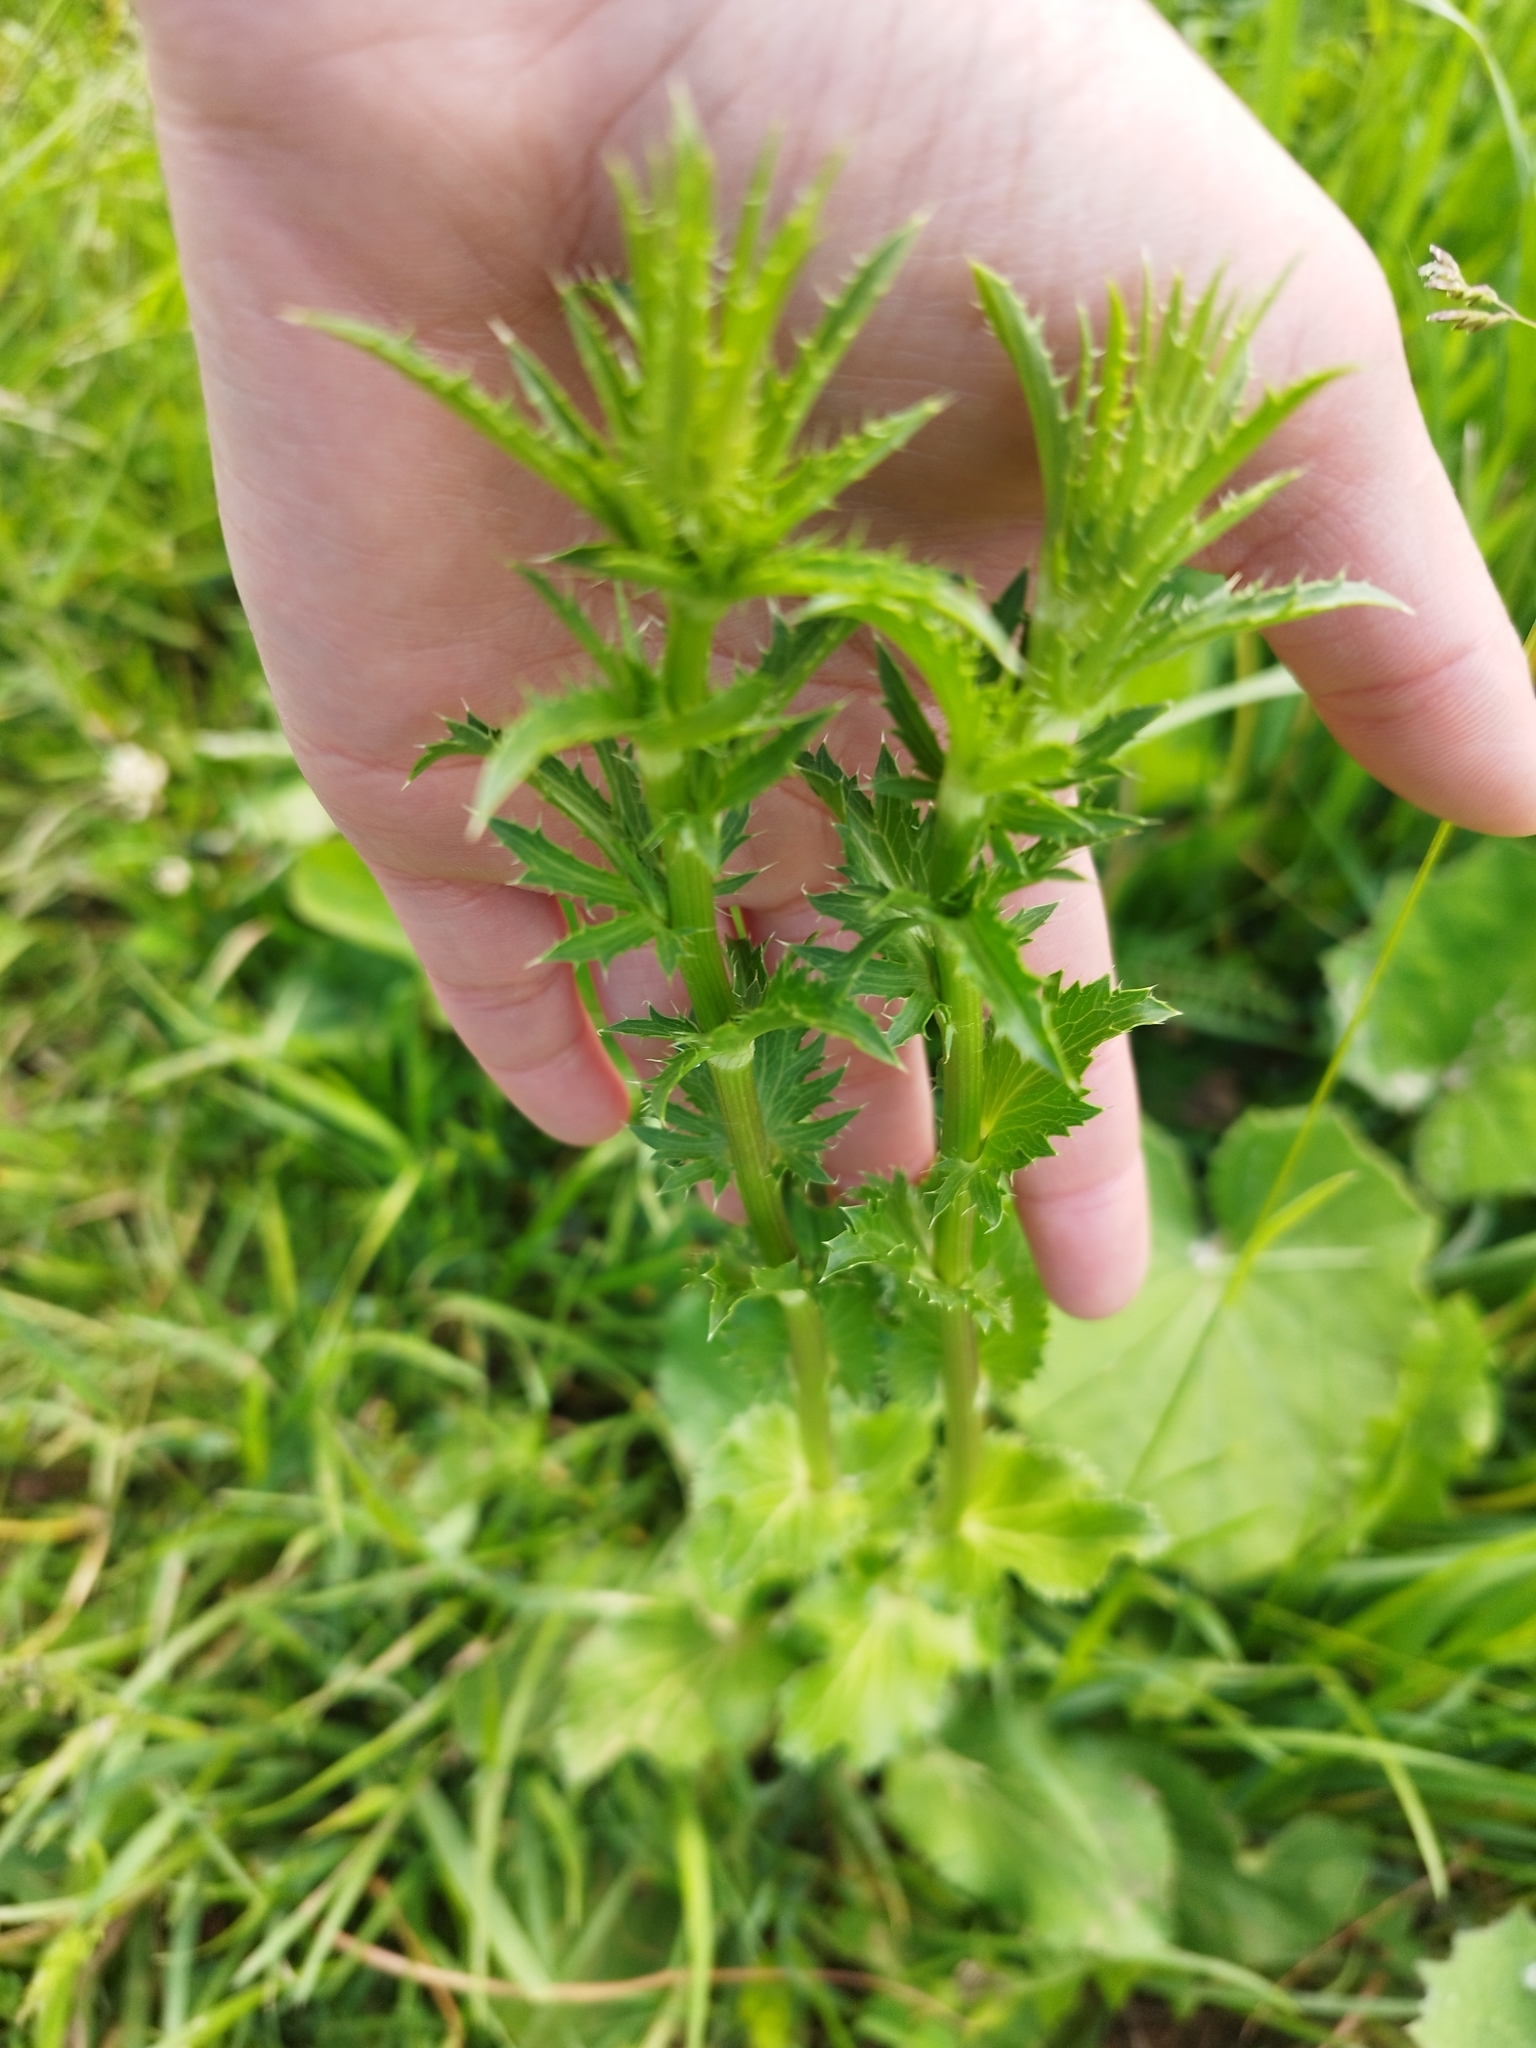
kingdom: Plantae
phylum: Tracheophyta
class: Magnoliopsida
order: Apiales
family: Apiaceae
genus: Eryngium
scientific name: Eryngium planum
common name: Blue eryngo
